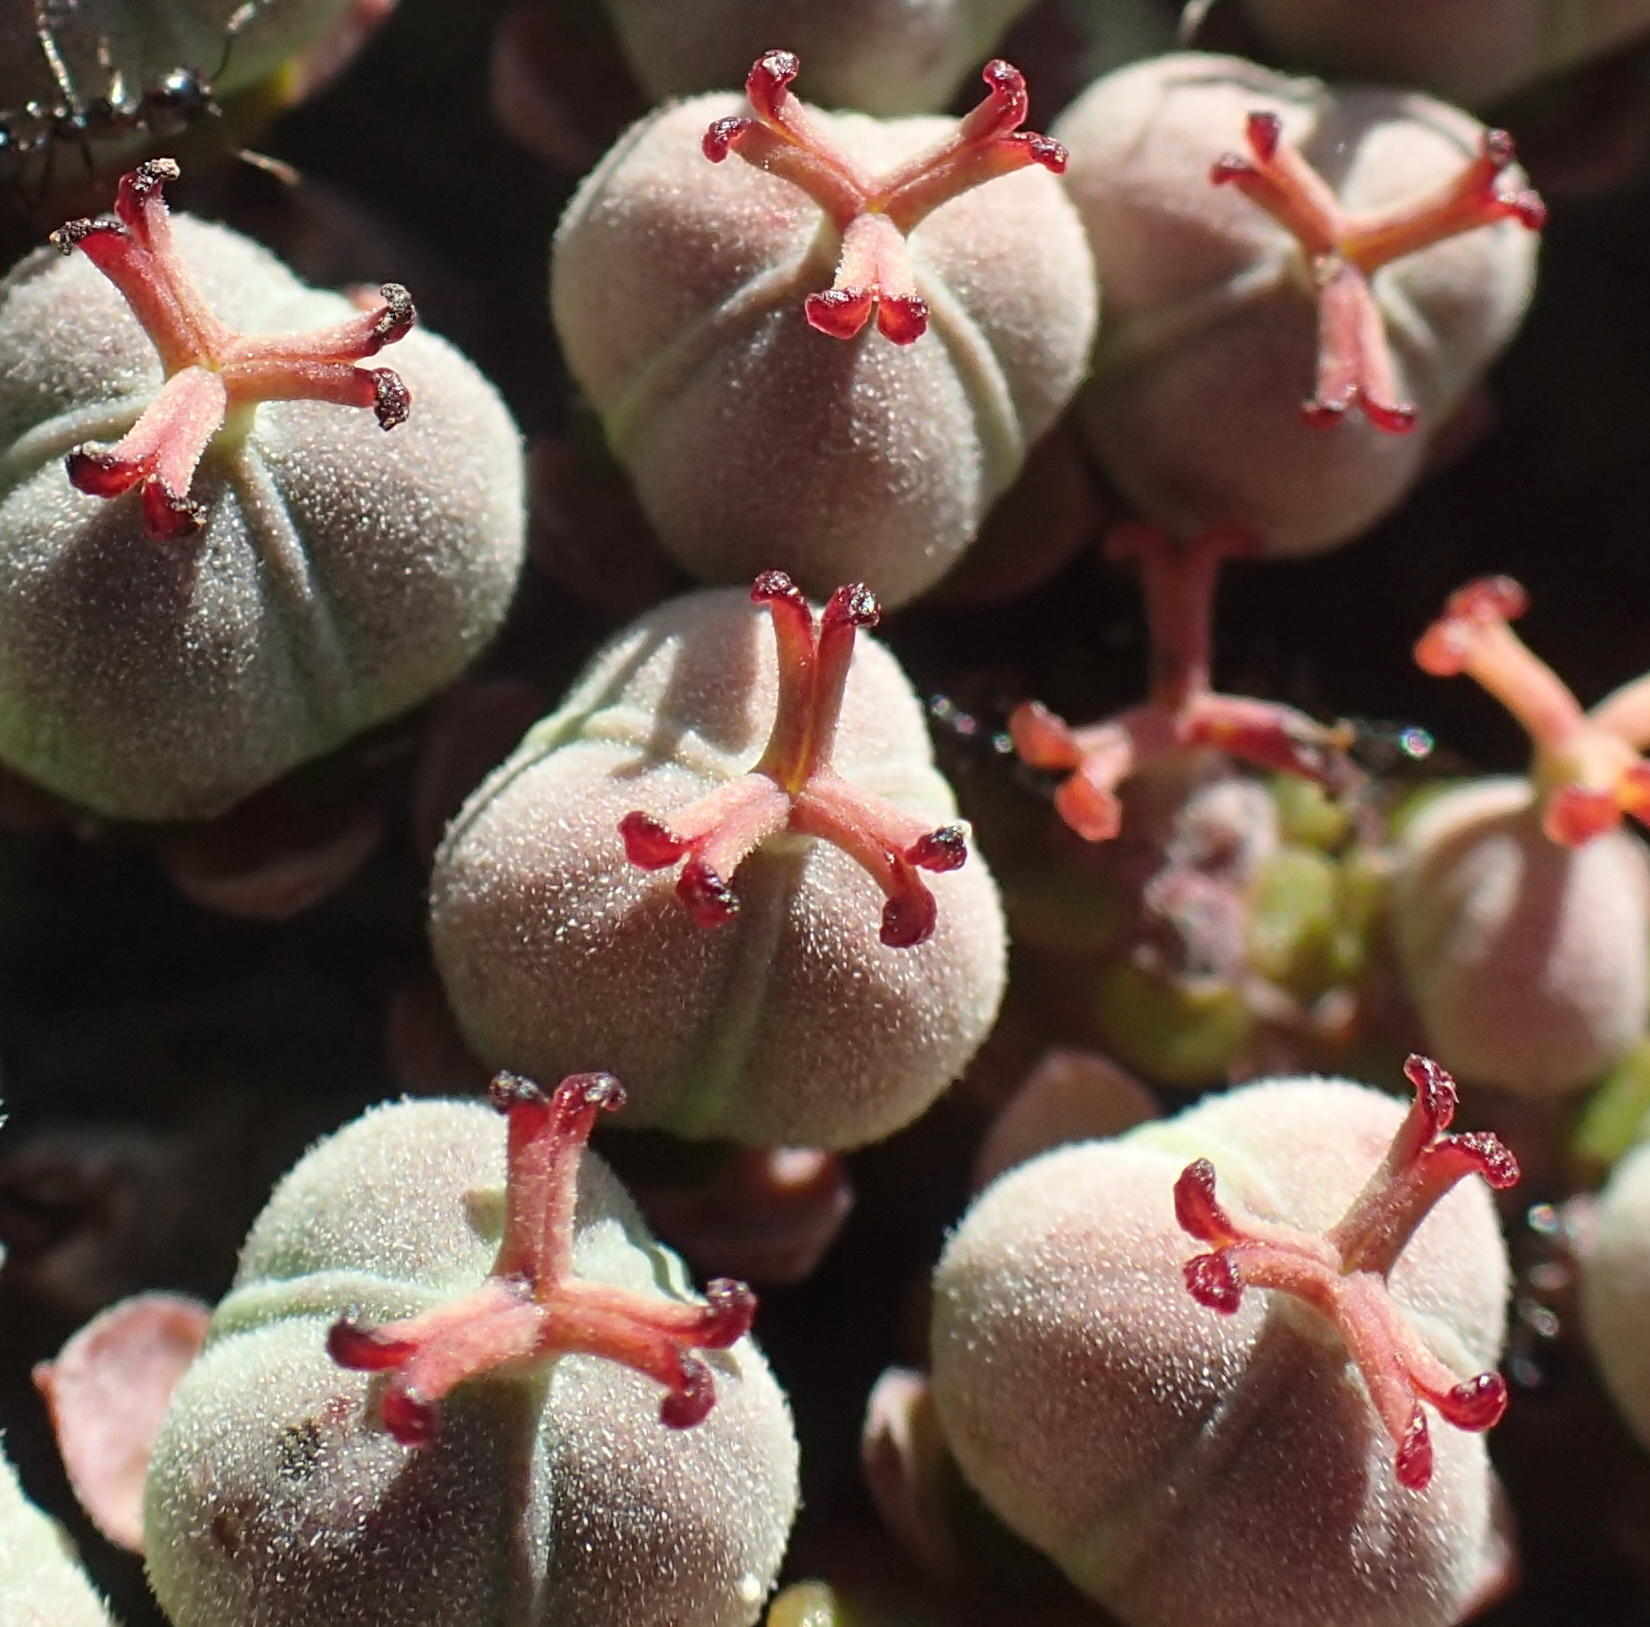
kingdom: Plantae
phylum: Tracheophyta
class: Magnoliopsida
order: Malpighiales
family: Euphorbiaceae
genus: Euphorbia
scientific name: Euphorbia polygona
